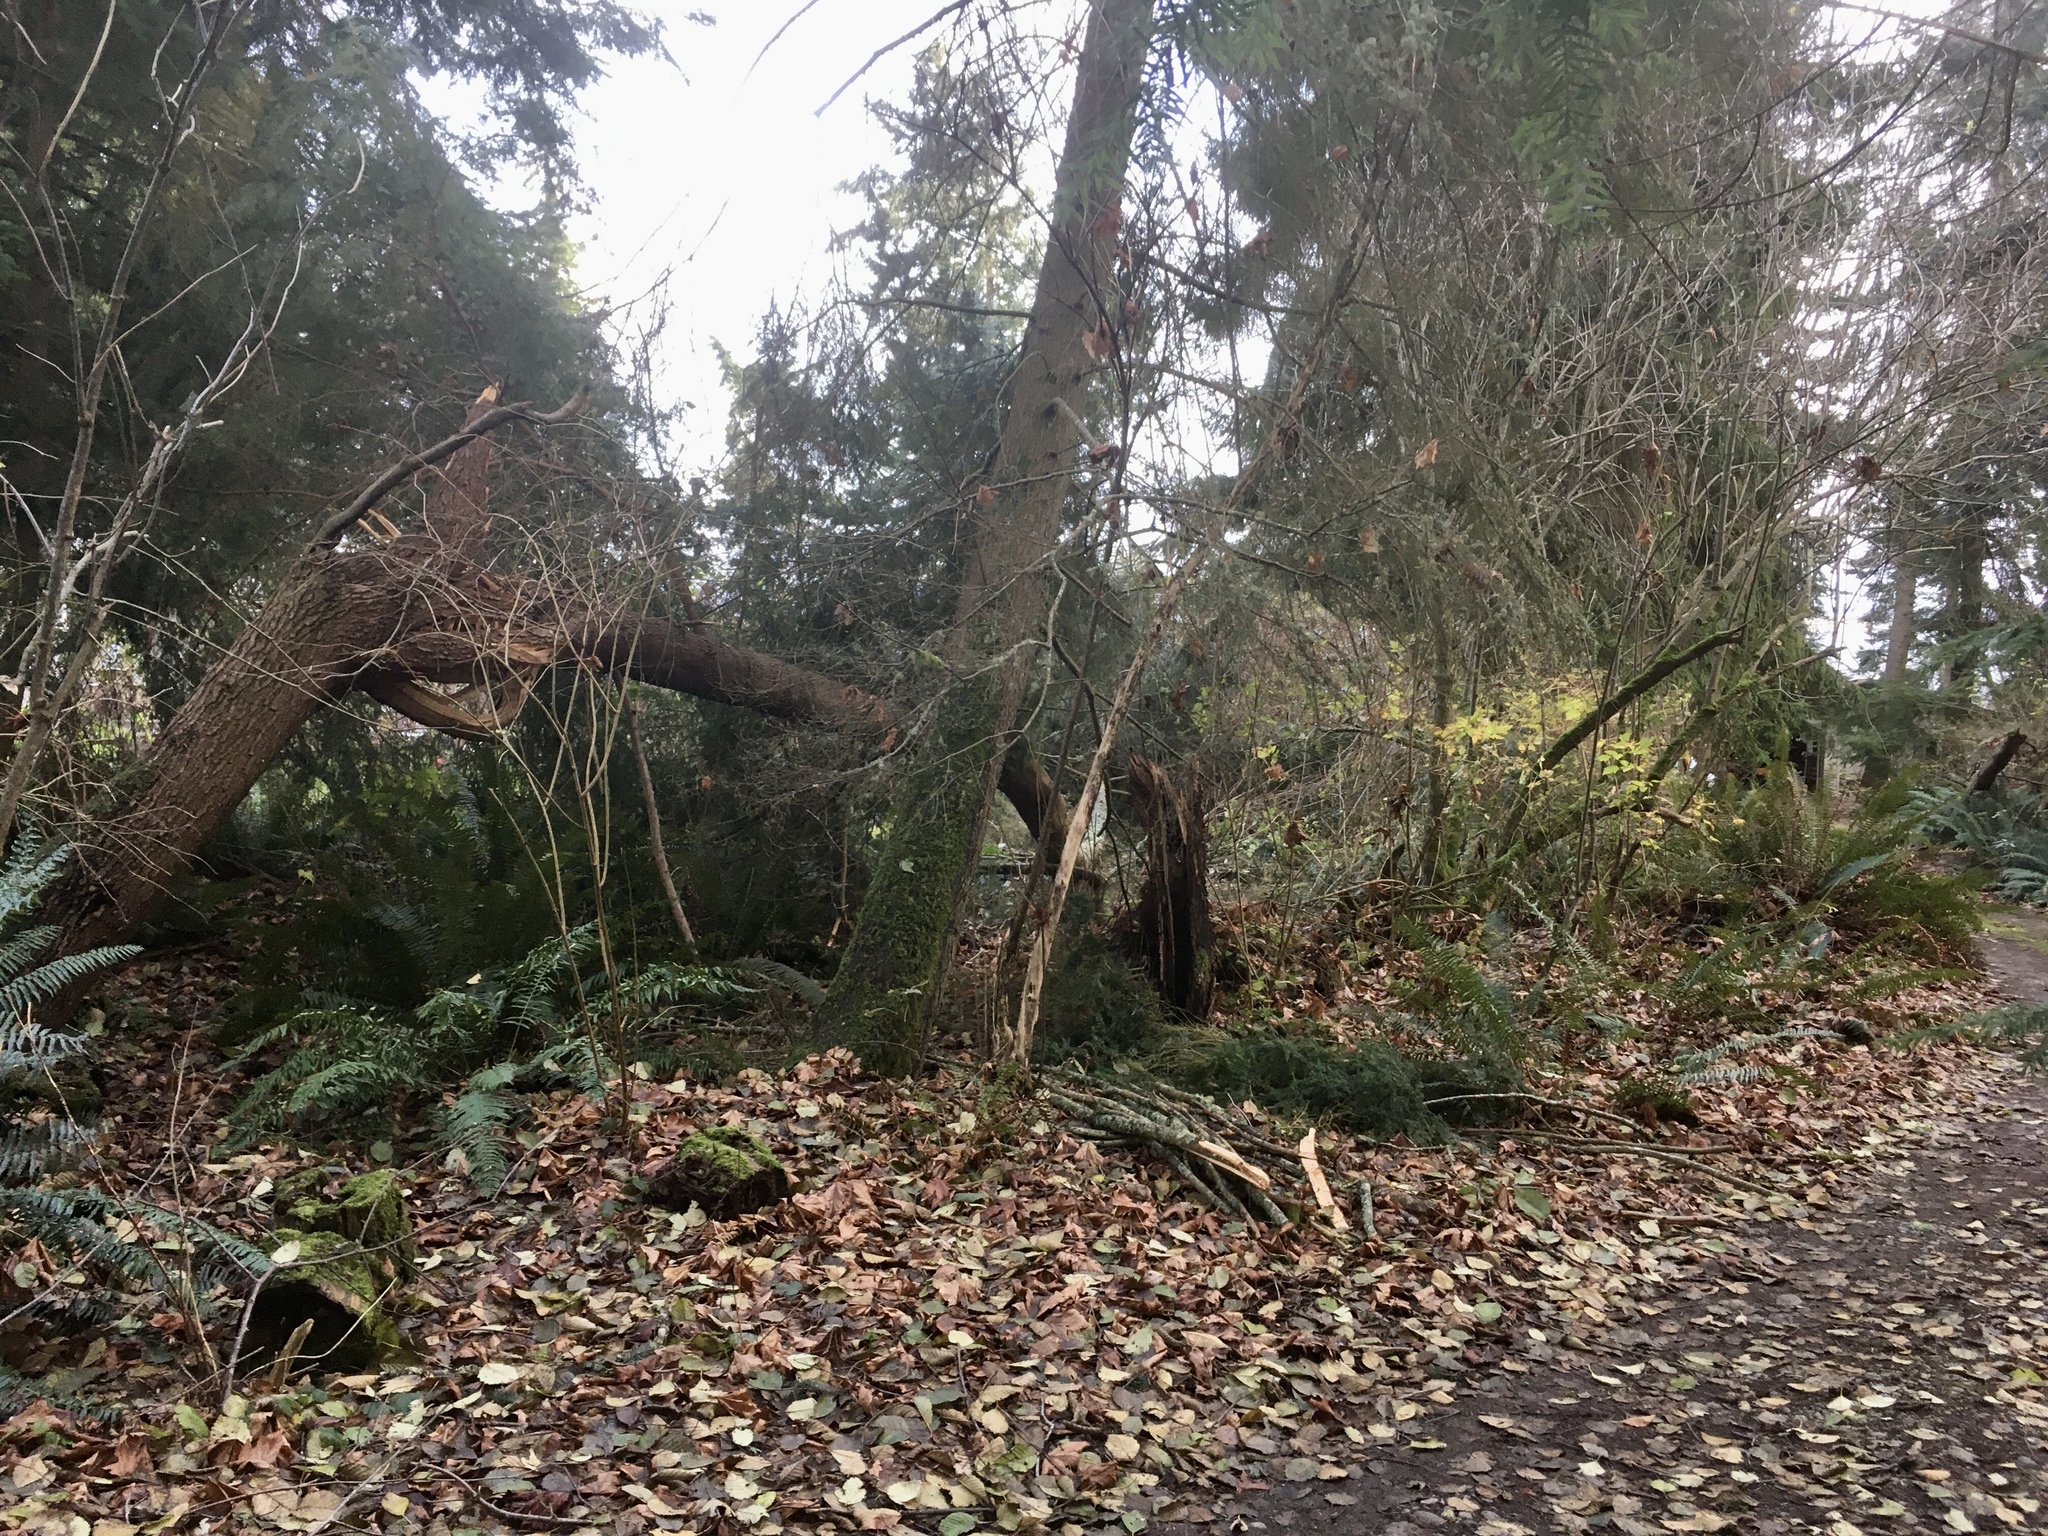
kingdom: Plantae
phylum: Tracheophyta
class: Pinopsida
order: Pinales
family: Pinaceae
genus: Tsuga
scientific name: Tsuga heterophylla
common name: Western hemlock
